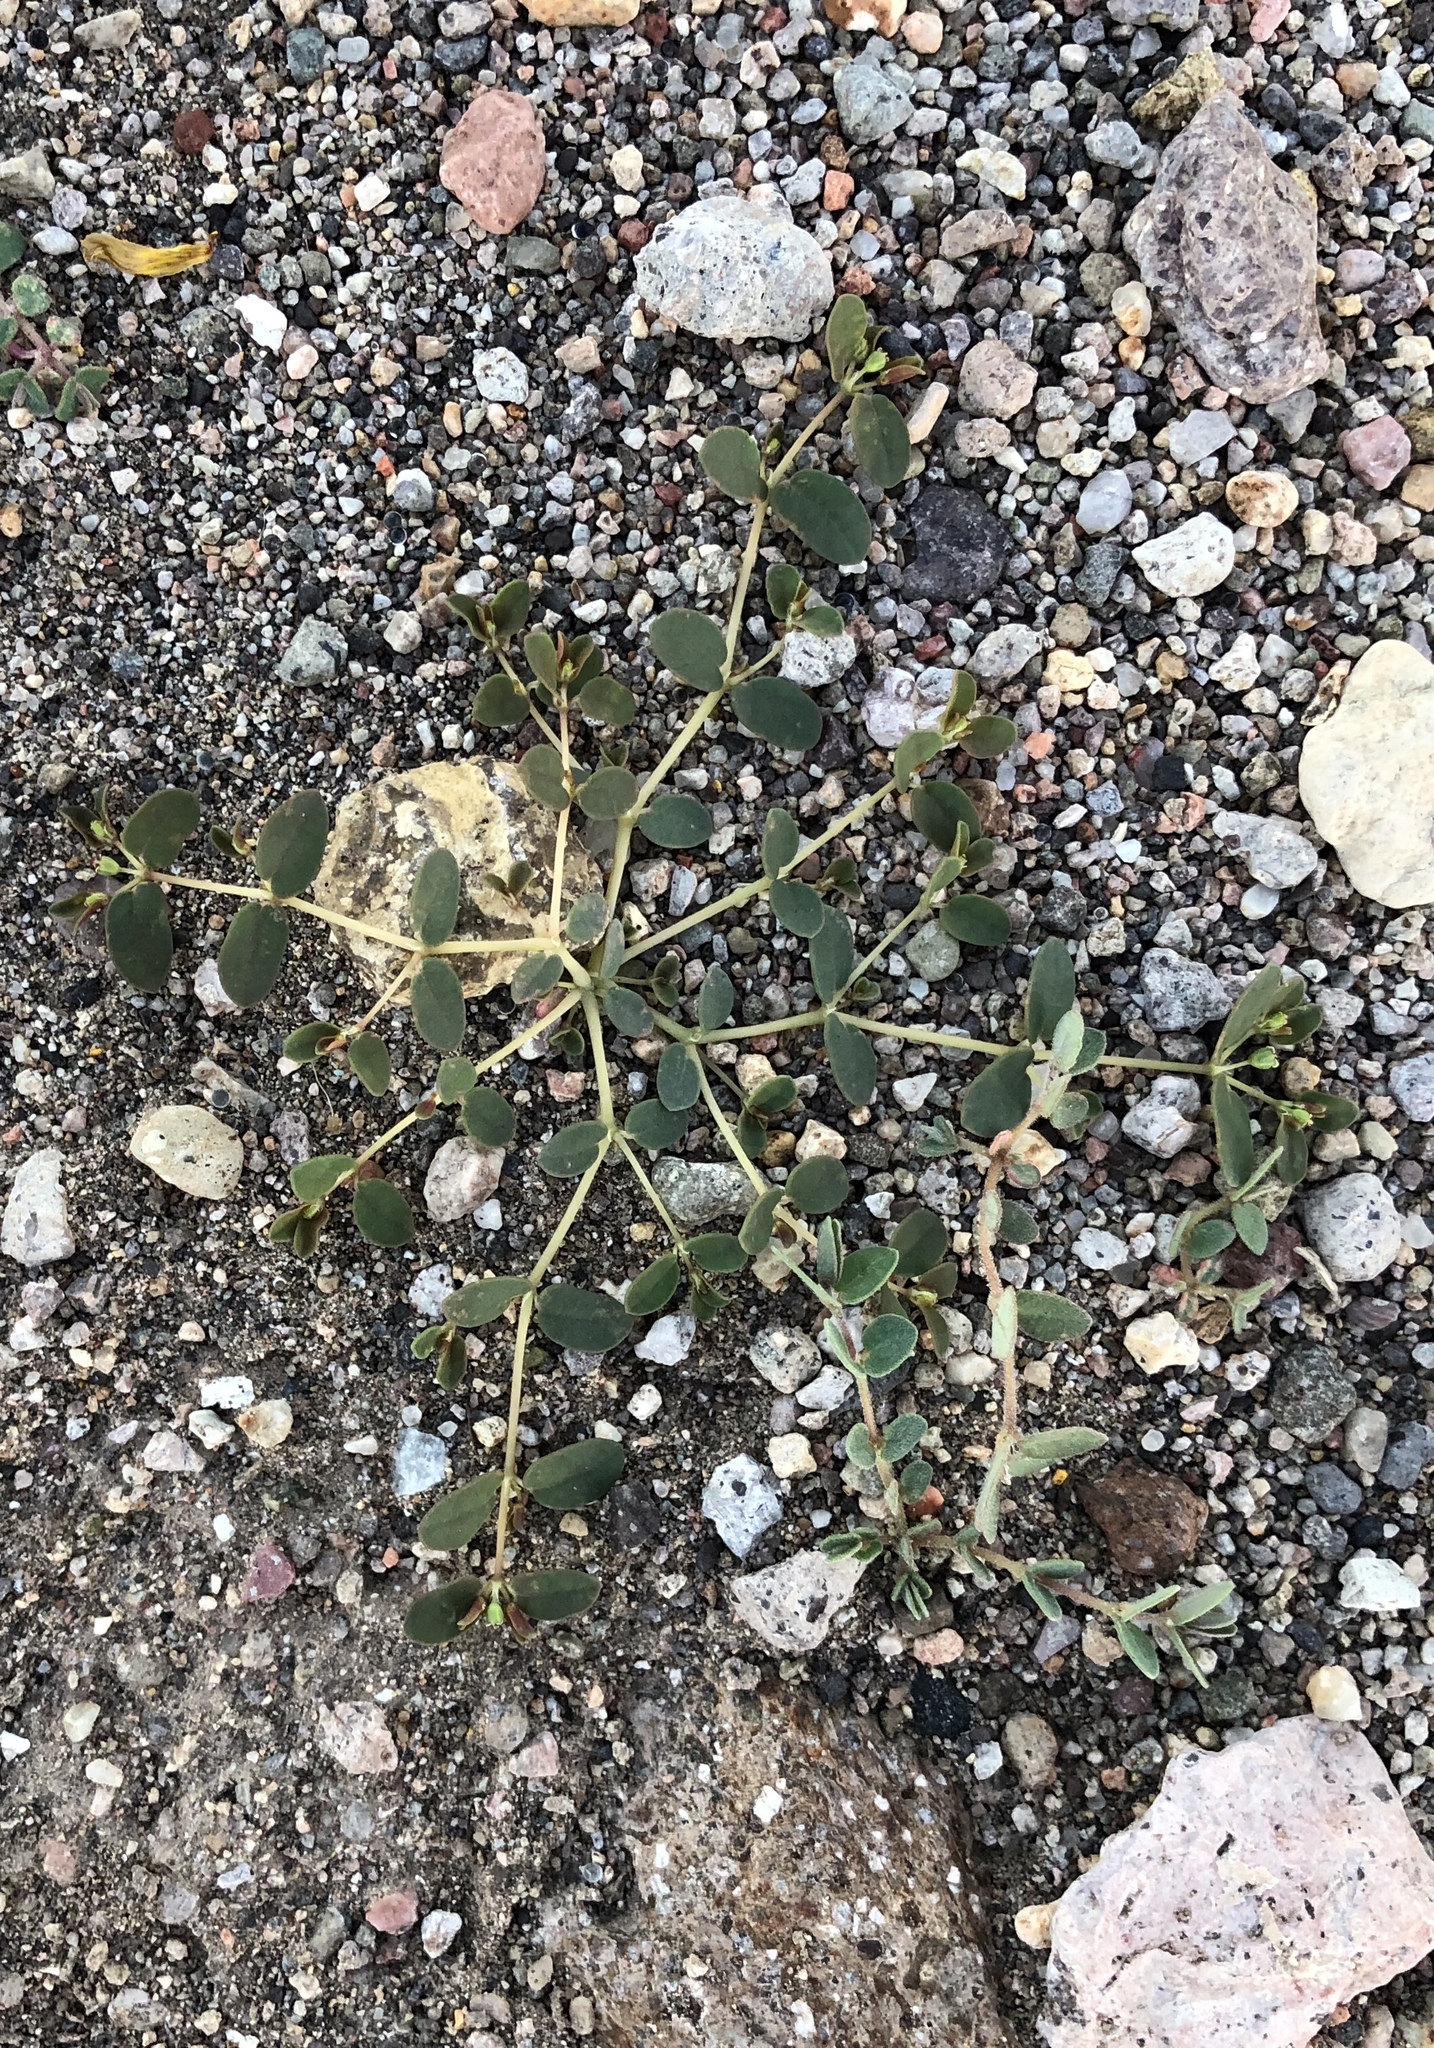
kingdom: Plantae
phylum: Tracheophyta
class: Magnoliopsida
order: Malpighiales
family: Euphorbiaceae
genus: Euphorbia
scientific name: Euphorbia polycarpa
